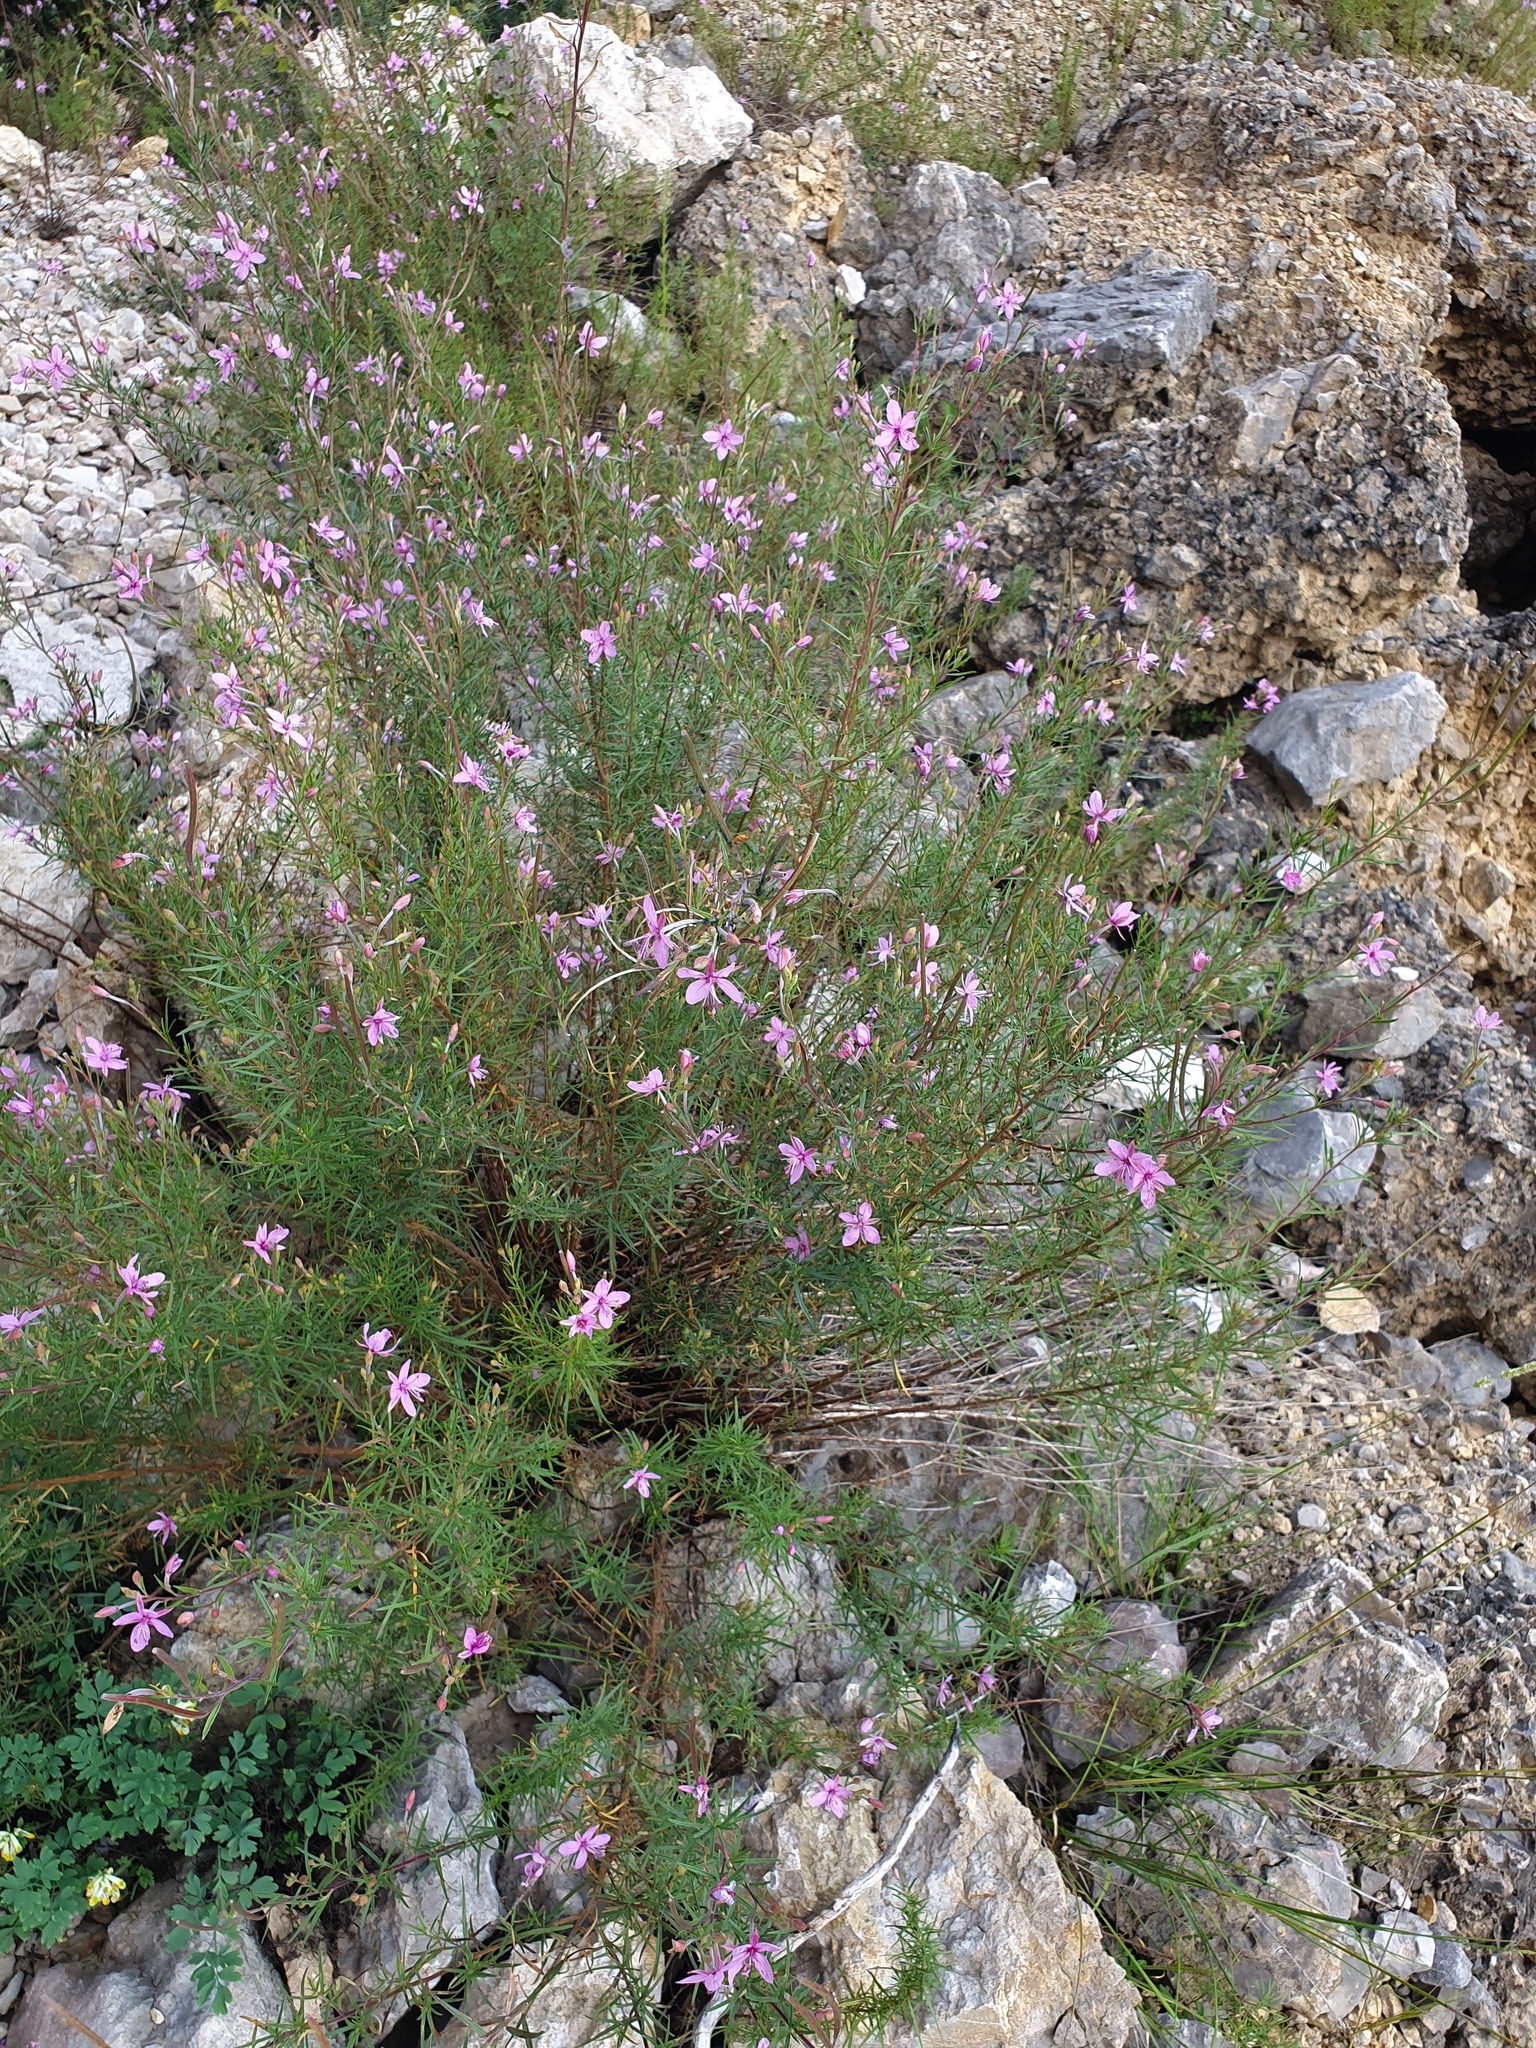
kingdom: Plantae
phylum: Tracheophyta
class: Magnoliopsida
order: Myrtales
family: Onagraceae
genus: Chamaenerion
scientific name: Chamaenerion dodonaei
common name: Rosemary-leaved willowherb
